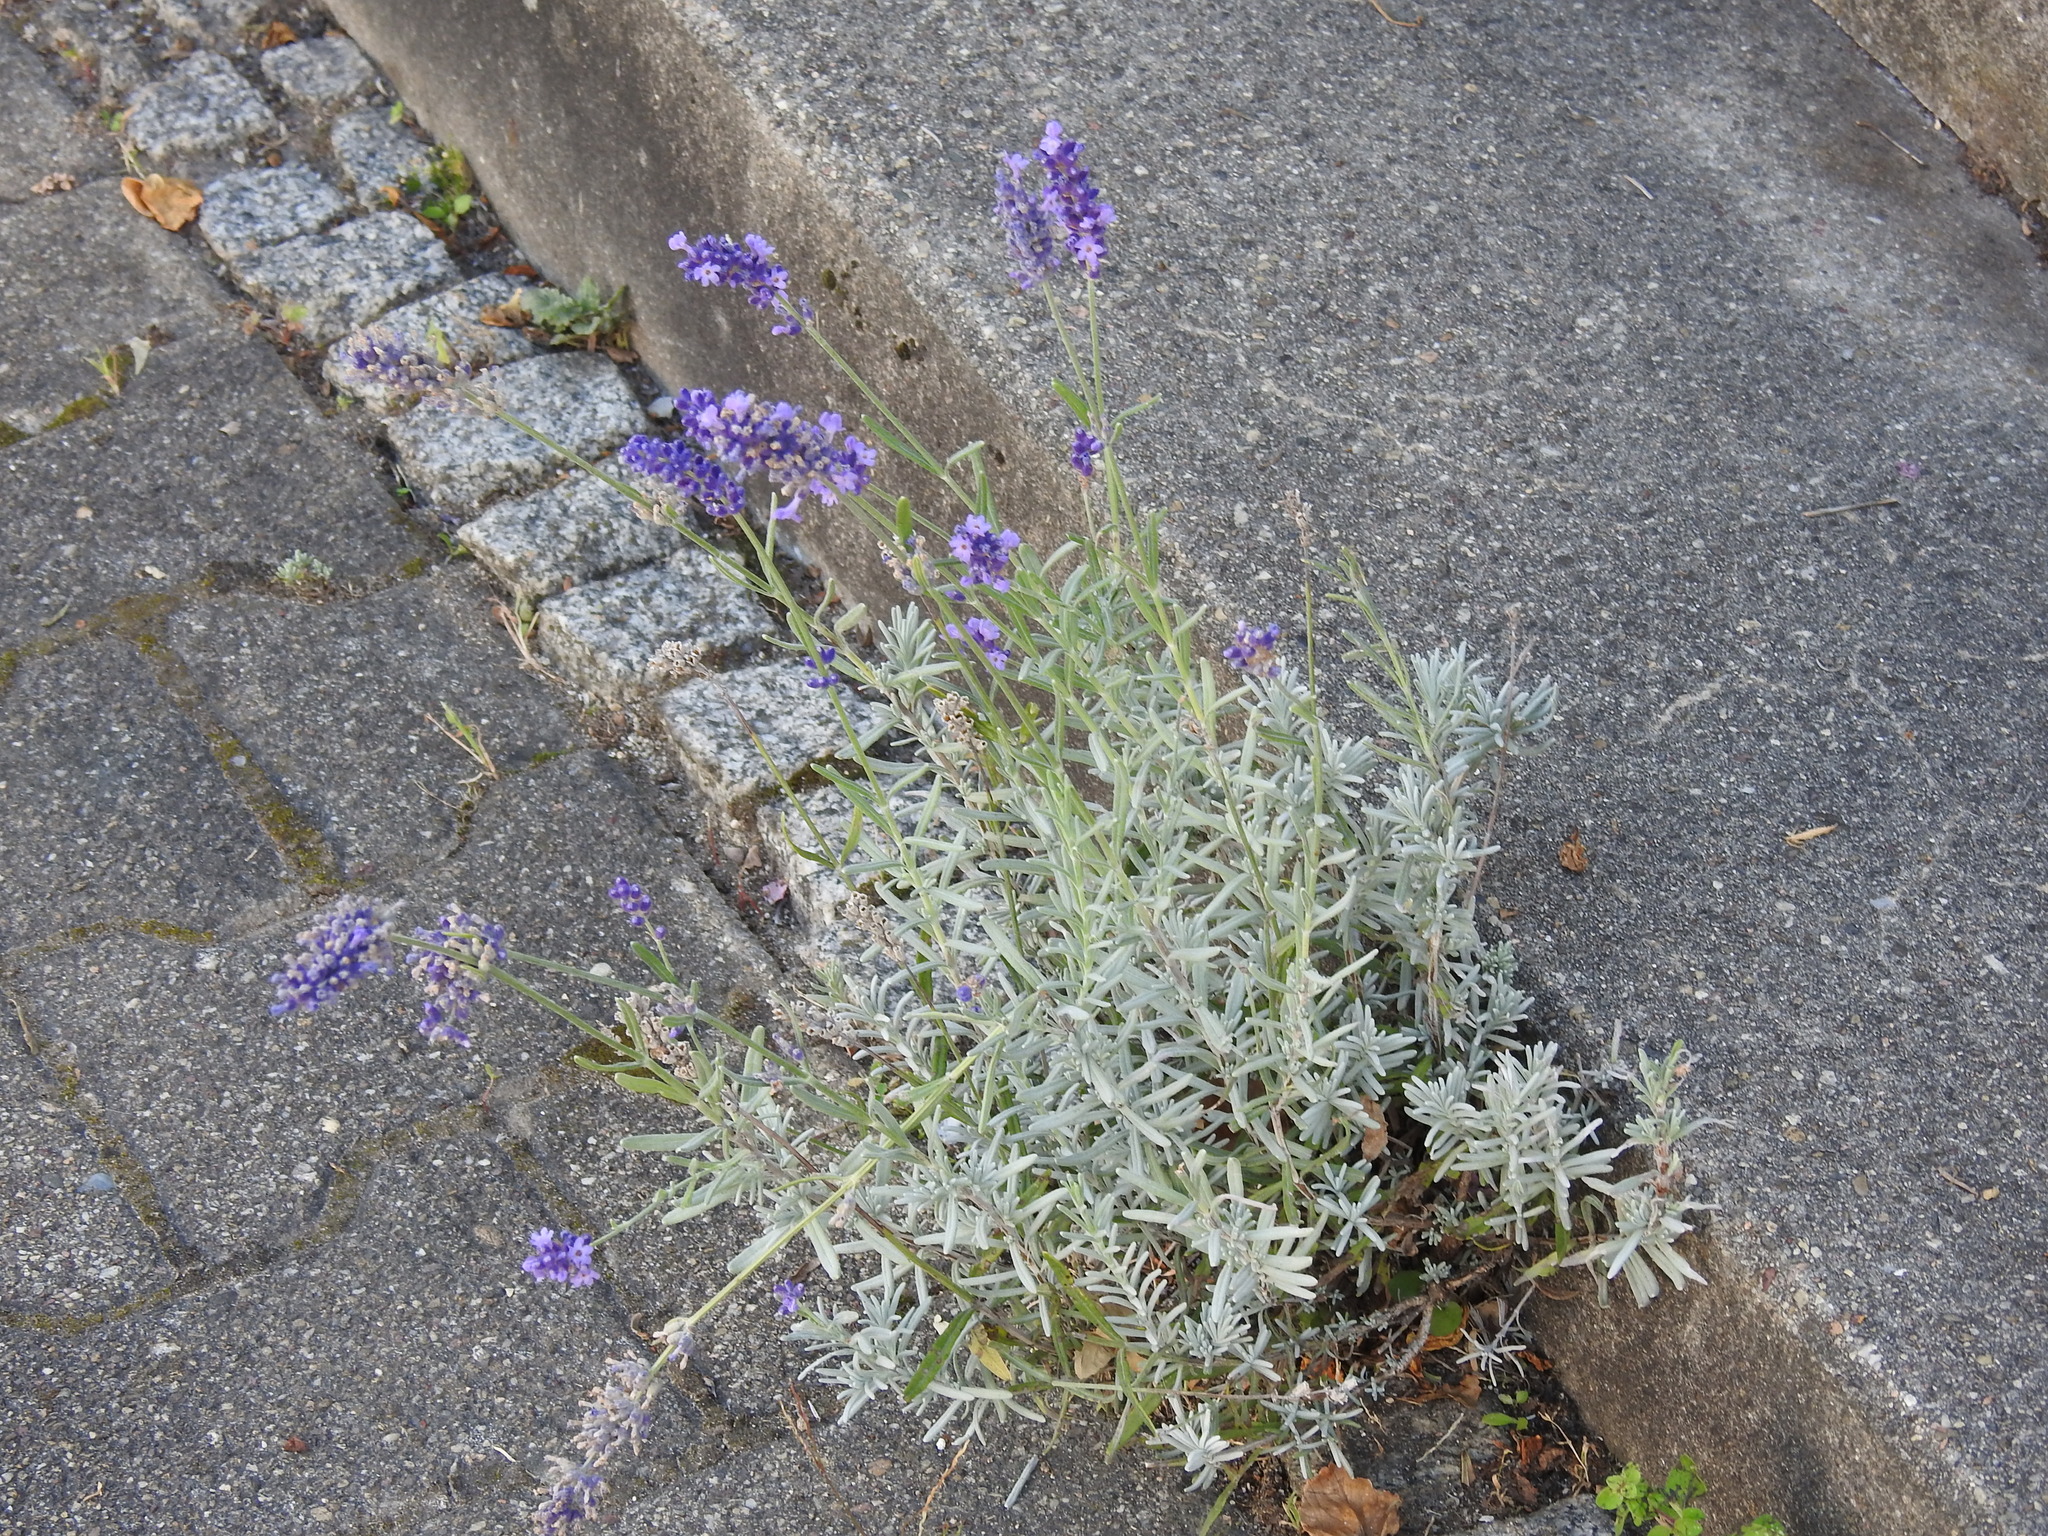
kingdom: Plantae
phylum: Tracheophyta
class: Magnoliopsida
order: Lamiales
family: Lamiaceae
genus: Lavandula
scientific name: Lavandula angustifolia
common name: Garden lavender
